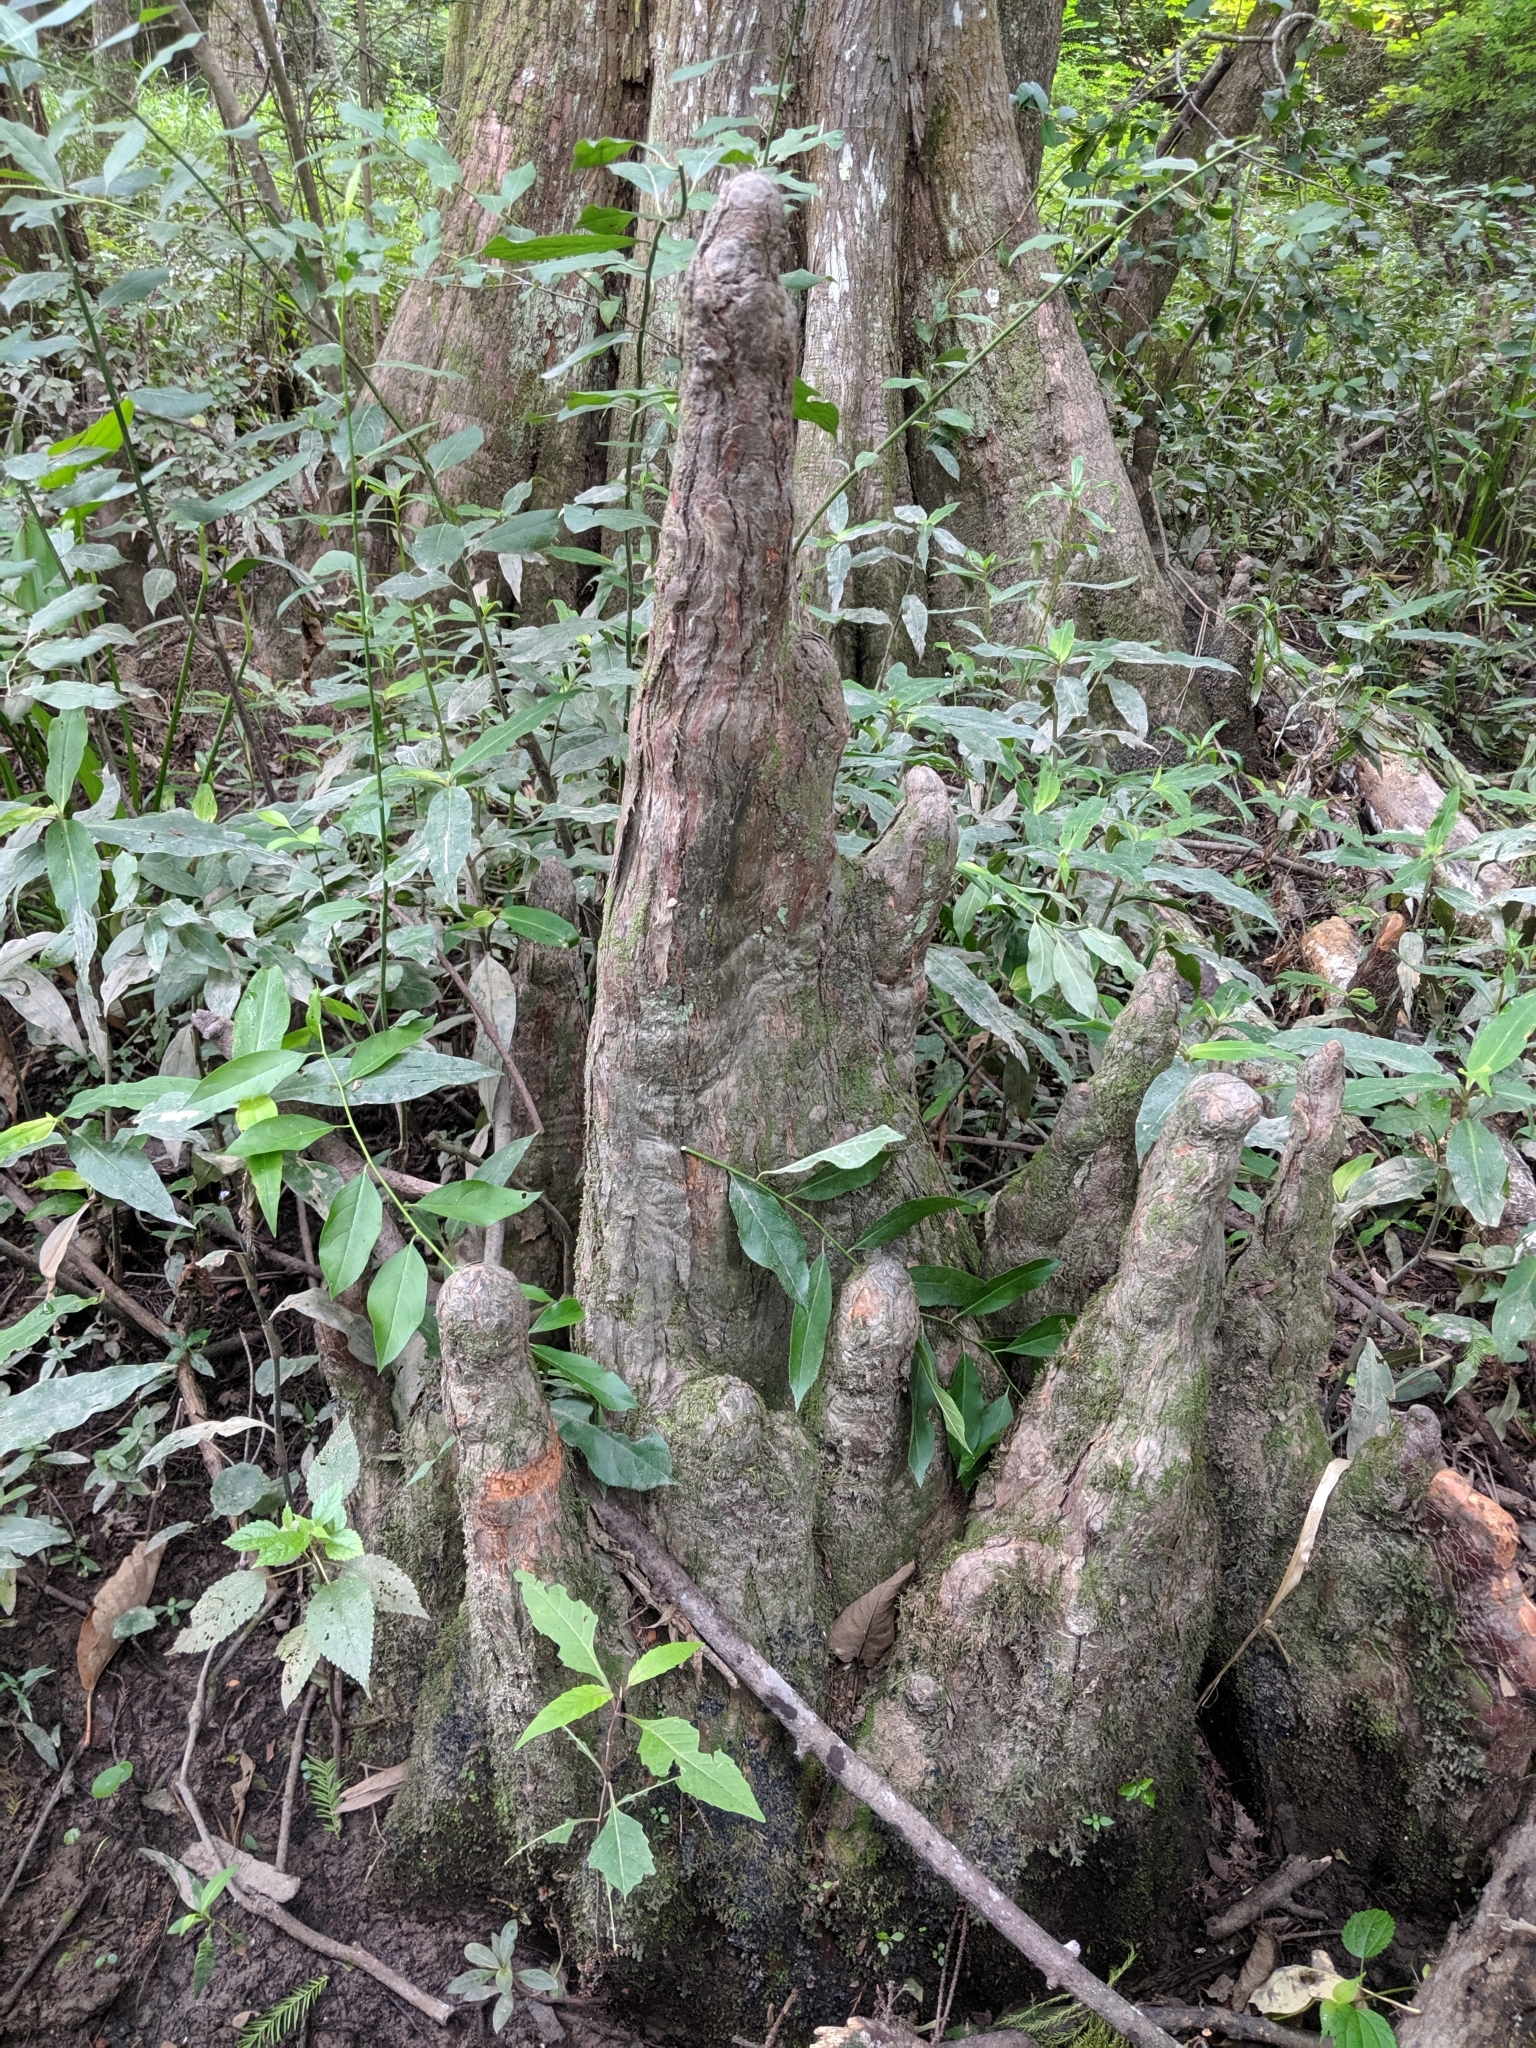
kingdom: Plantae
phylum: Tracheophyta
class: Pinopsida
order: Pinales
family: Cupressaceae
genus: Taxodium
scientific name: Taxodium distichum
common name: Bald cypress
